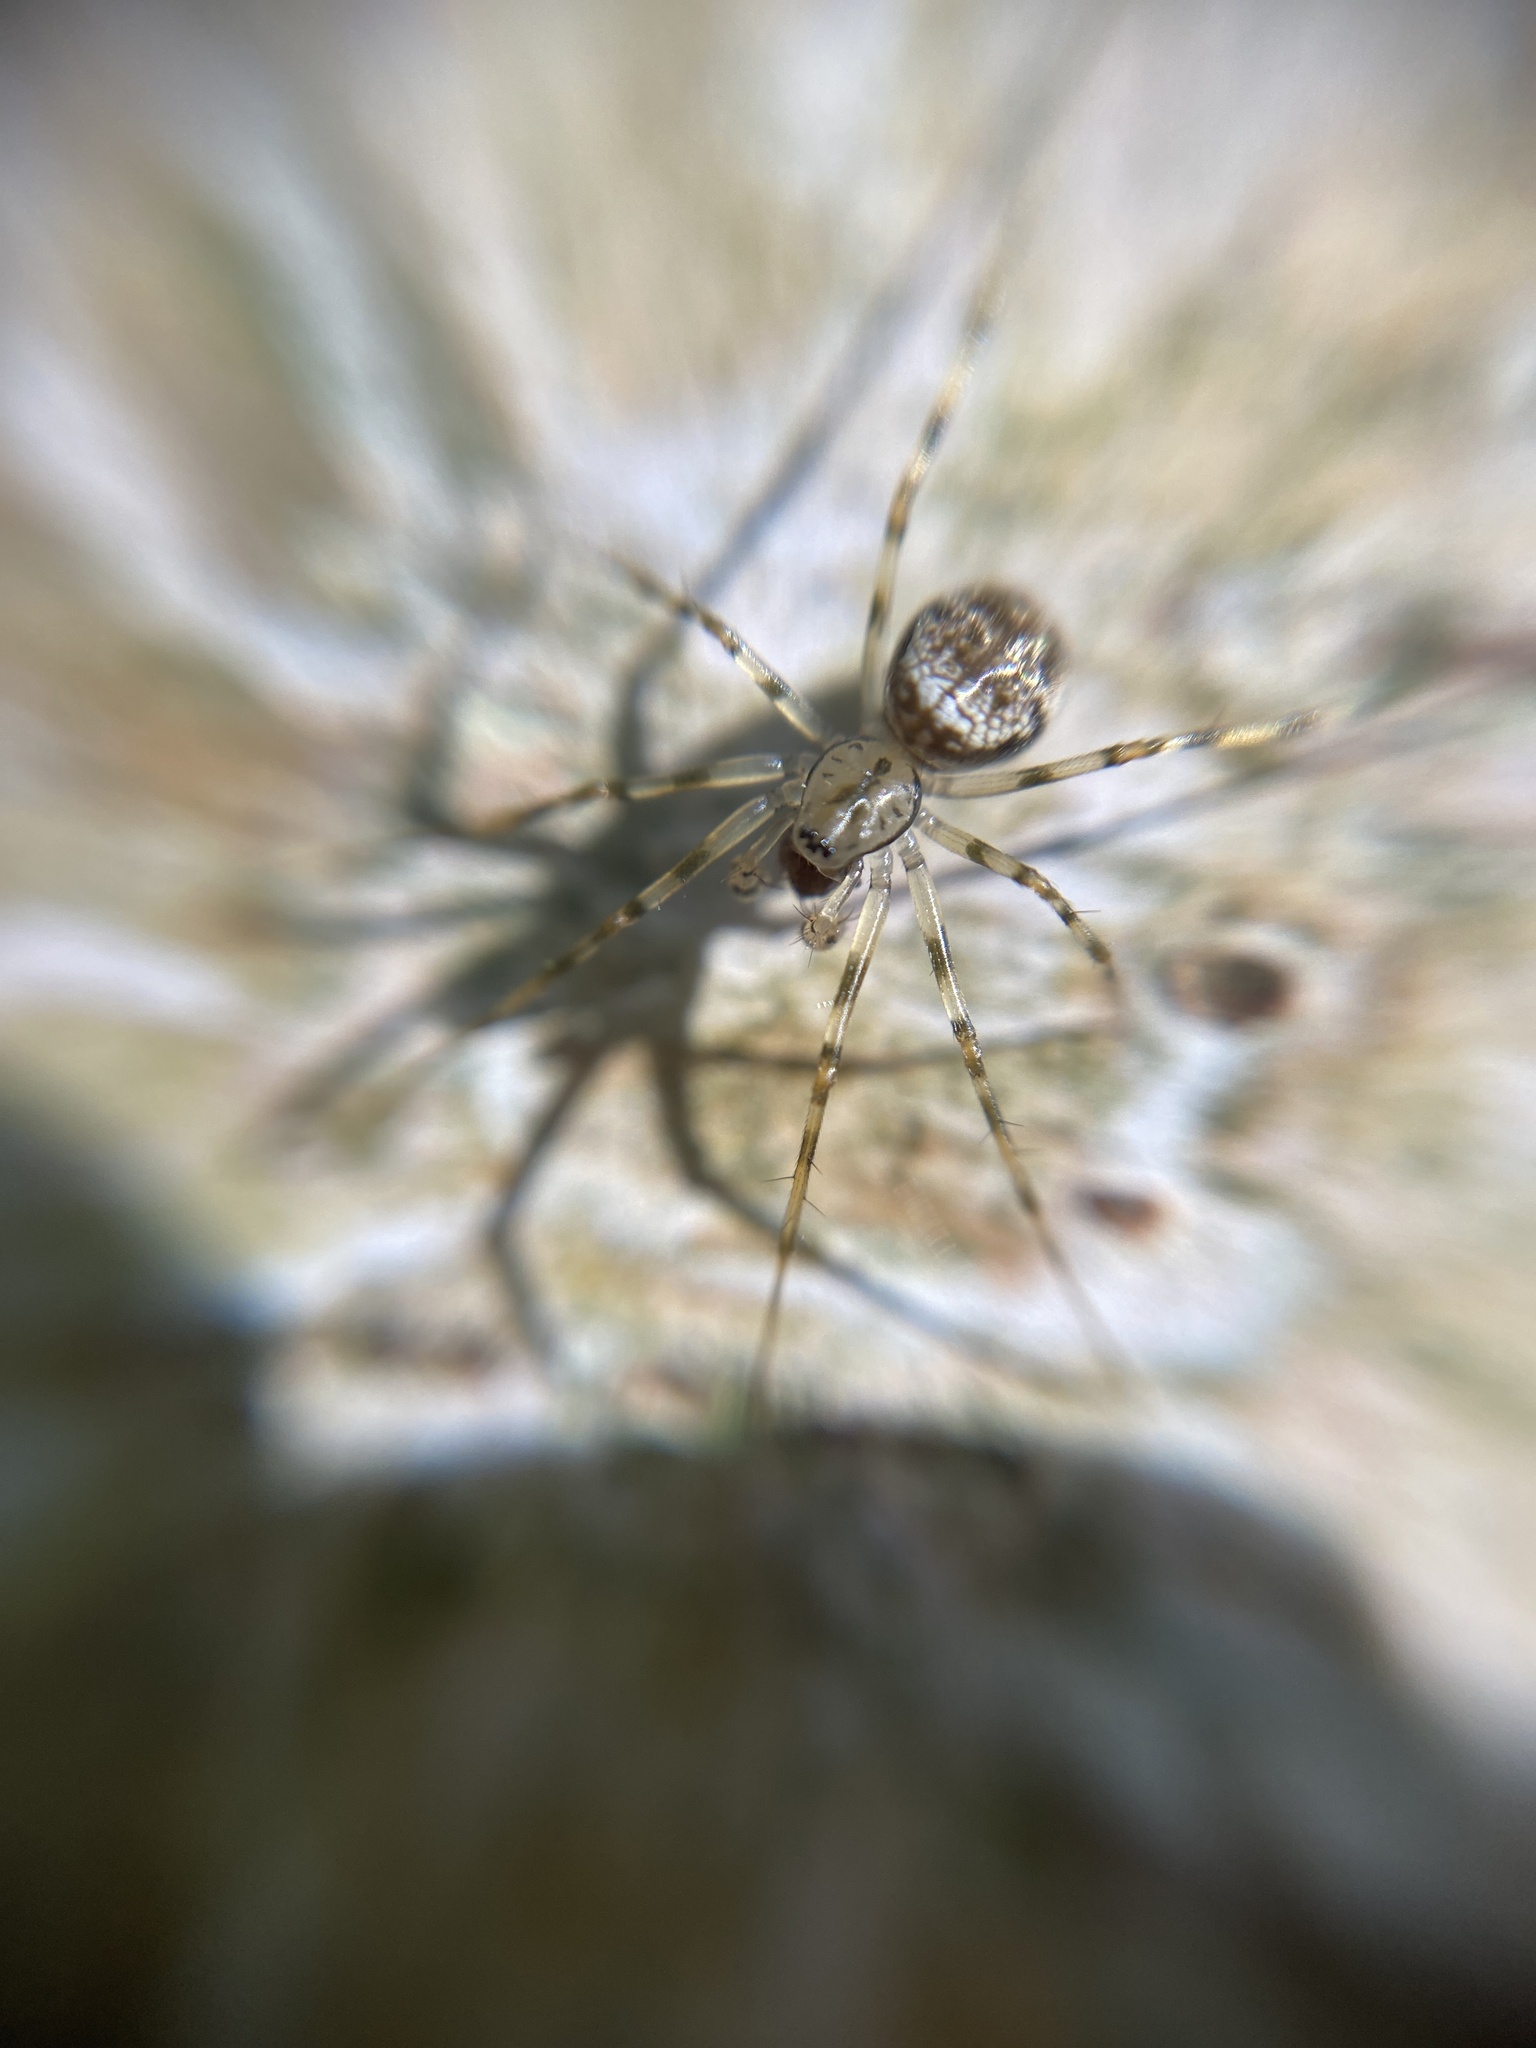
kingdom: Animalia
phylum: Arthropoda
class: Arachnida
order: Araneae
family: Linyphiidae
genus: Drapetisca
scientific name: Drapetisca socialis
